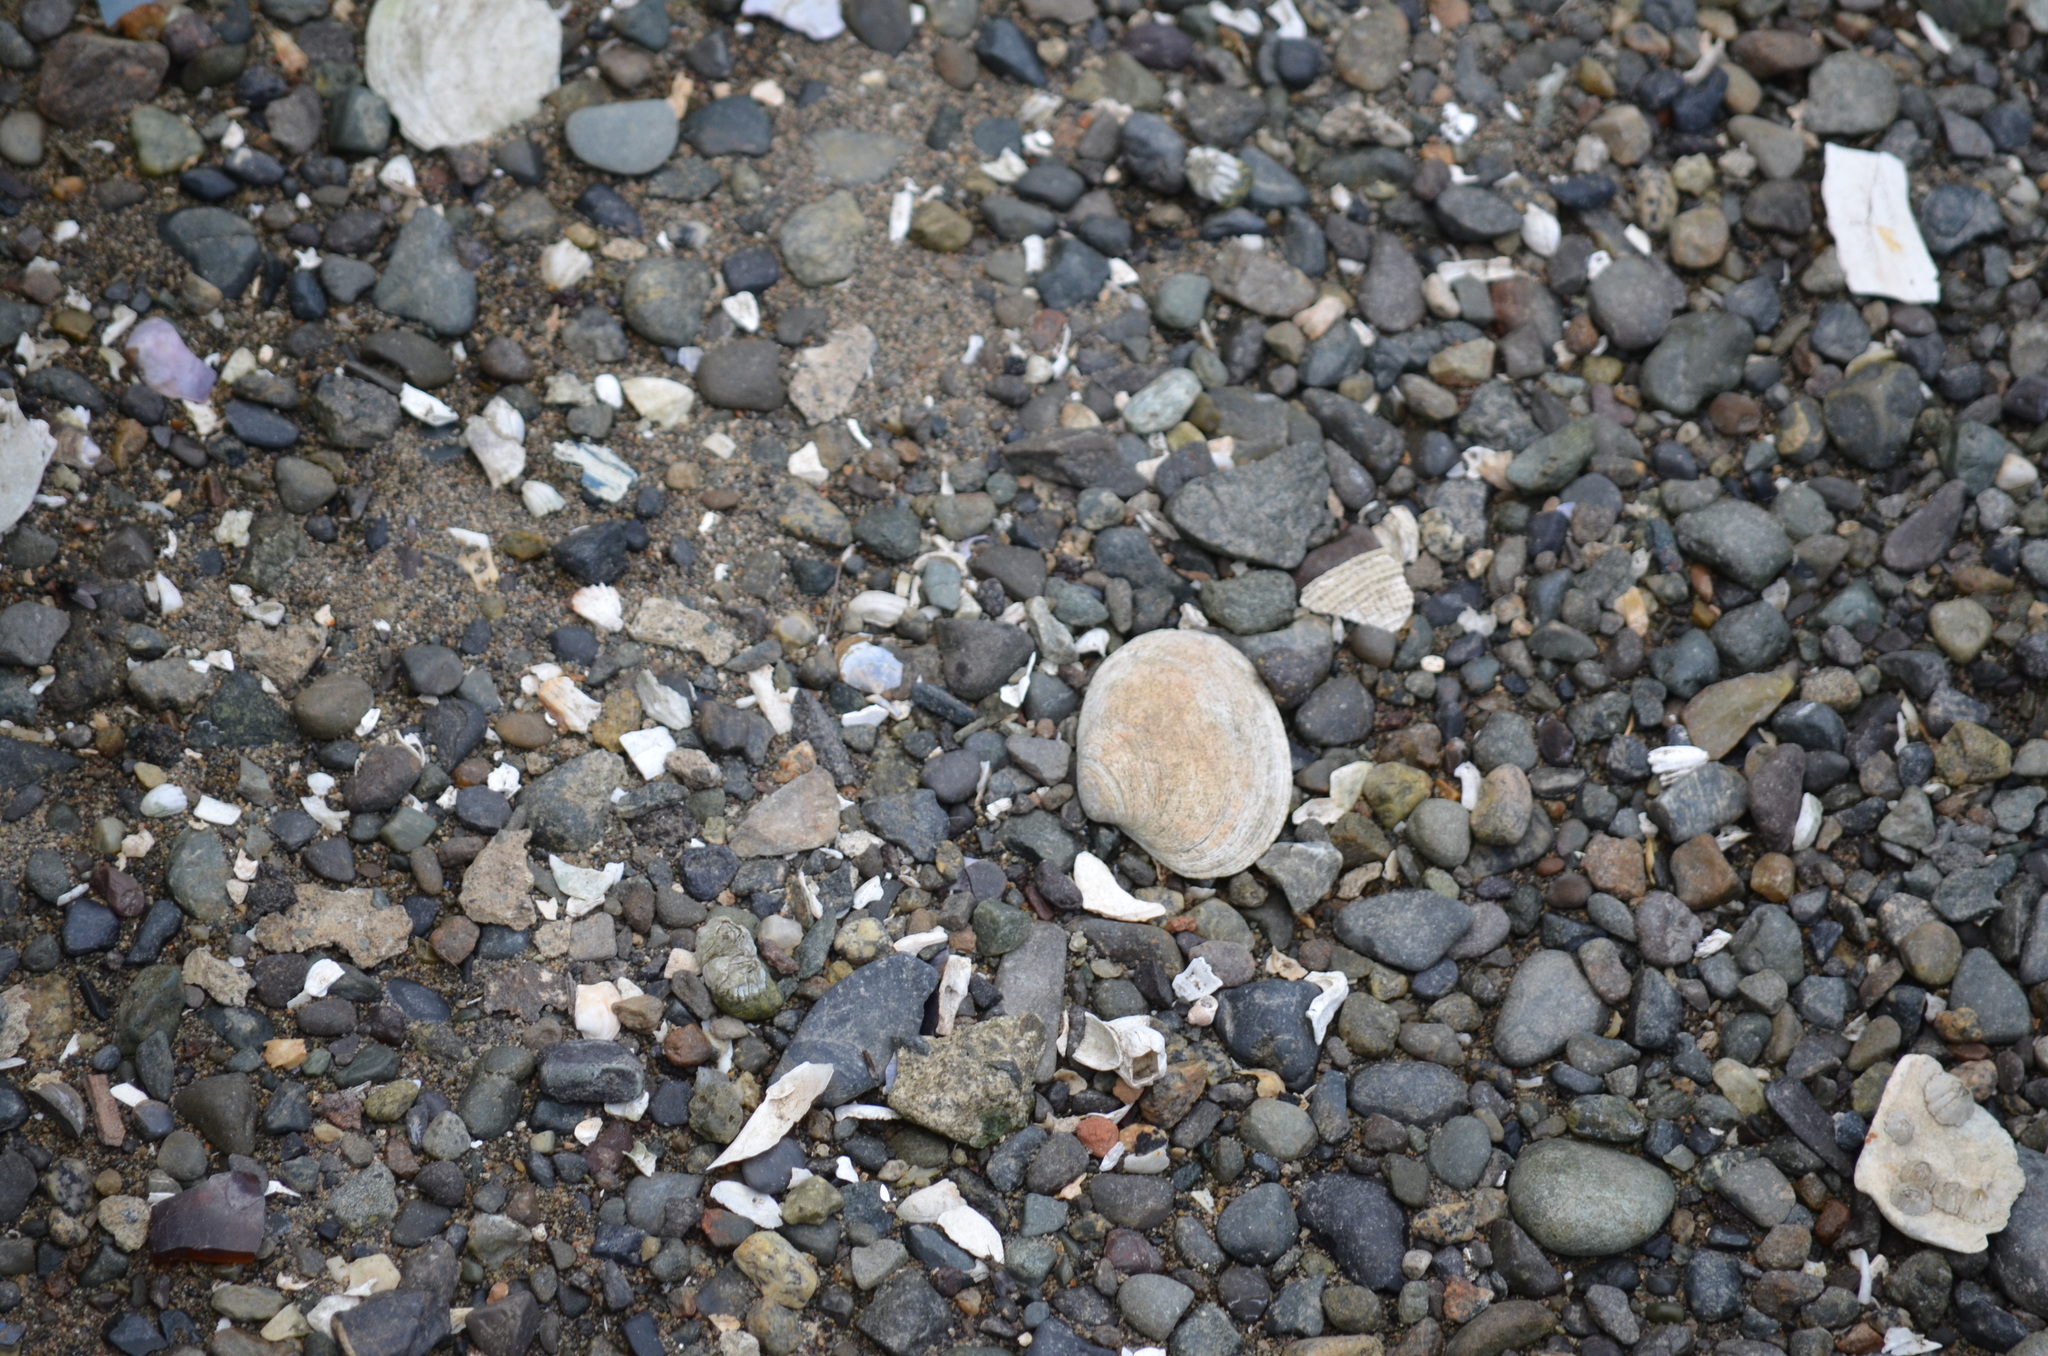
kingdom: Animalia
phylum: Mollusca
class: Bivalvia
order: Venerida
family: Veneridae
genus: Saxidomus
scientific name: Saxidomus gigantea
